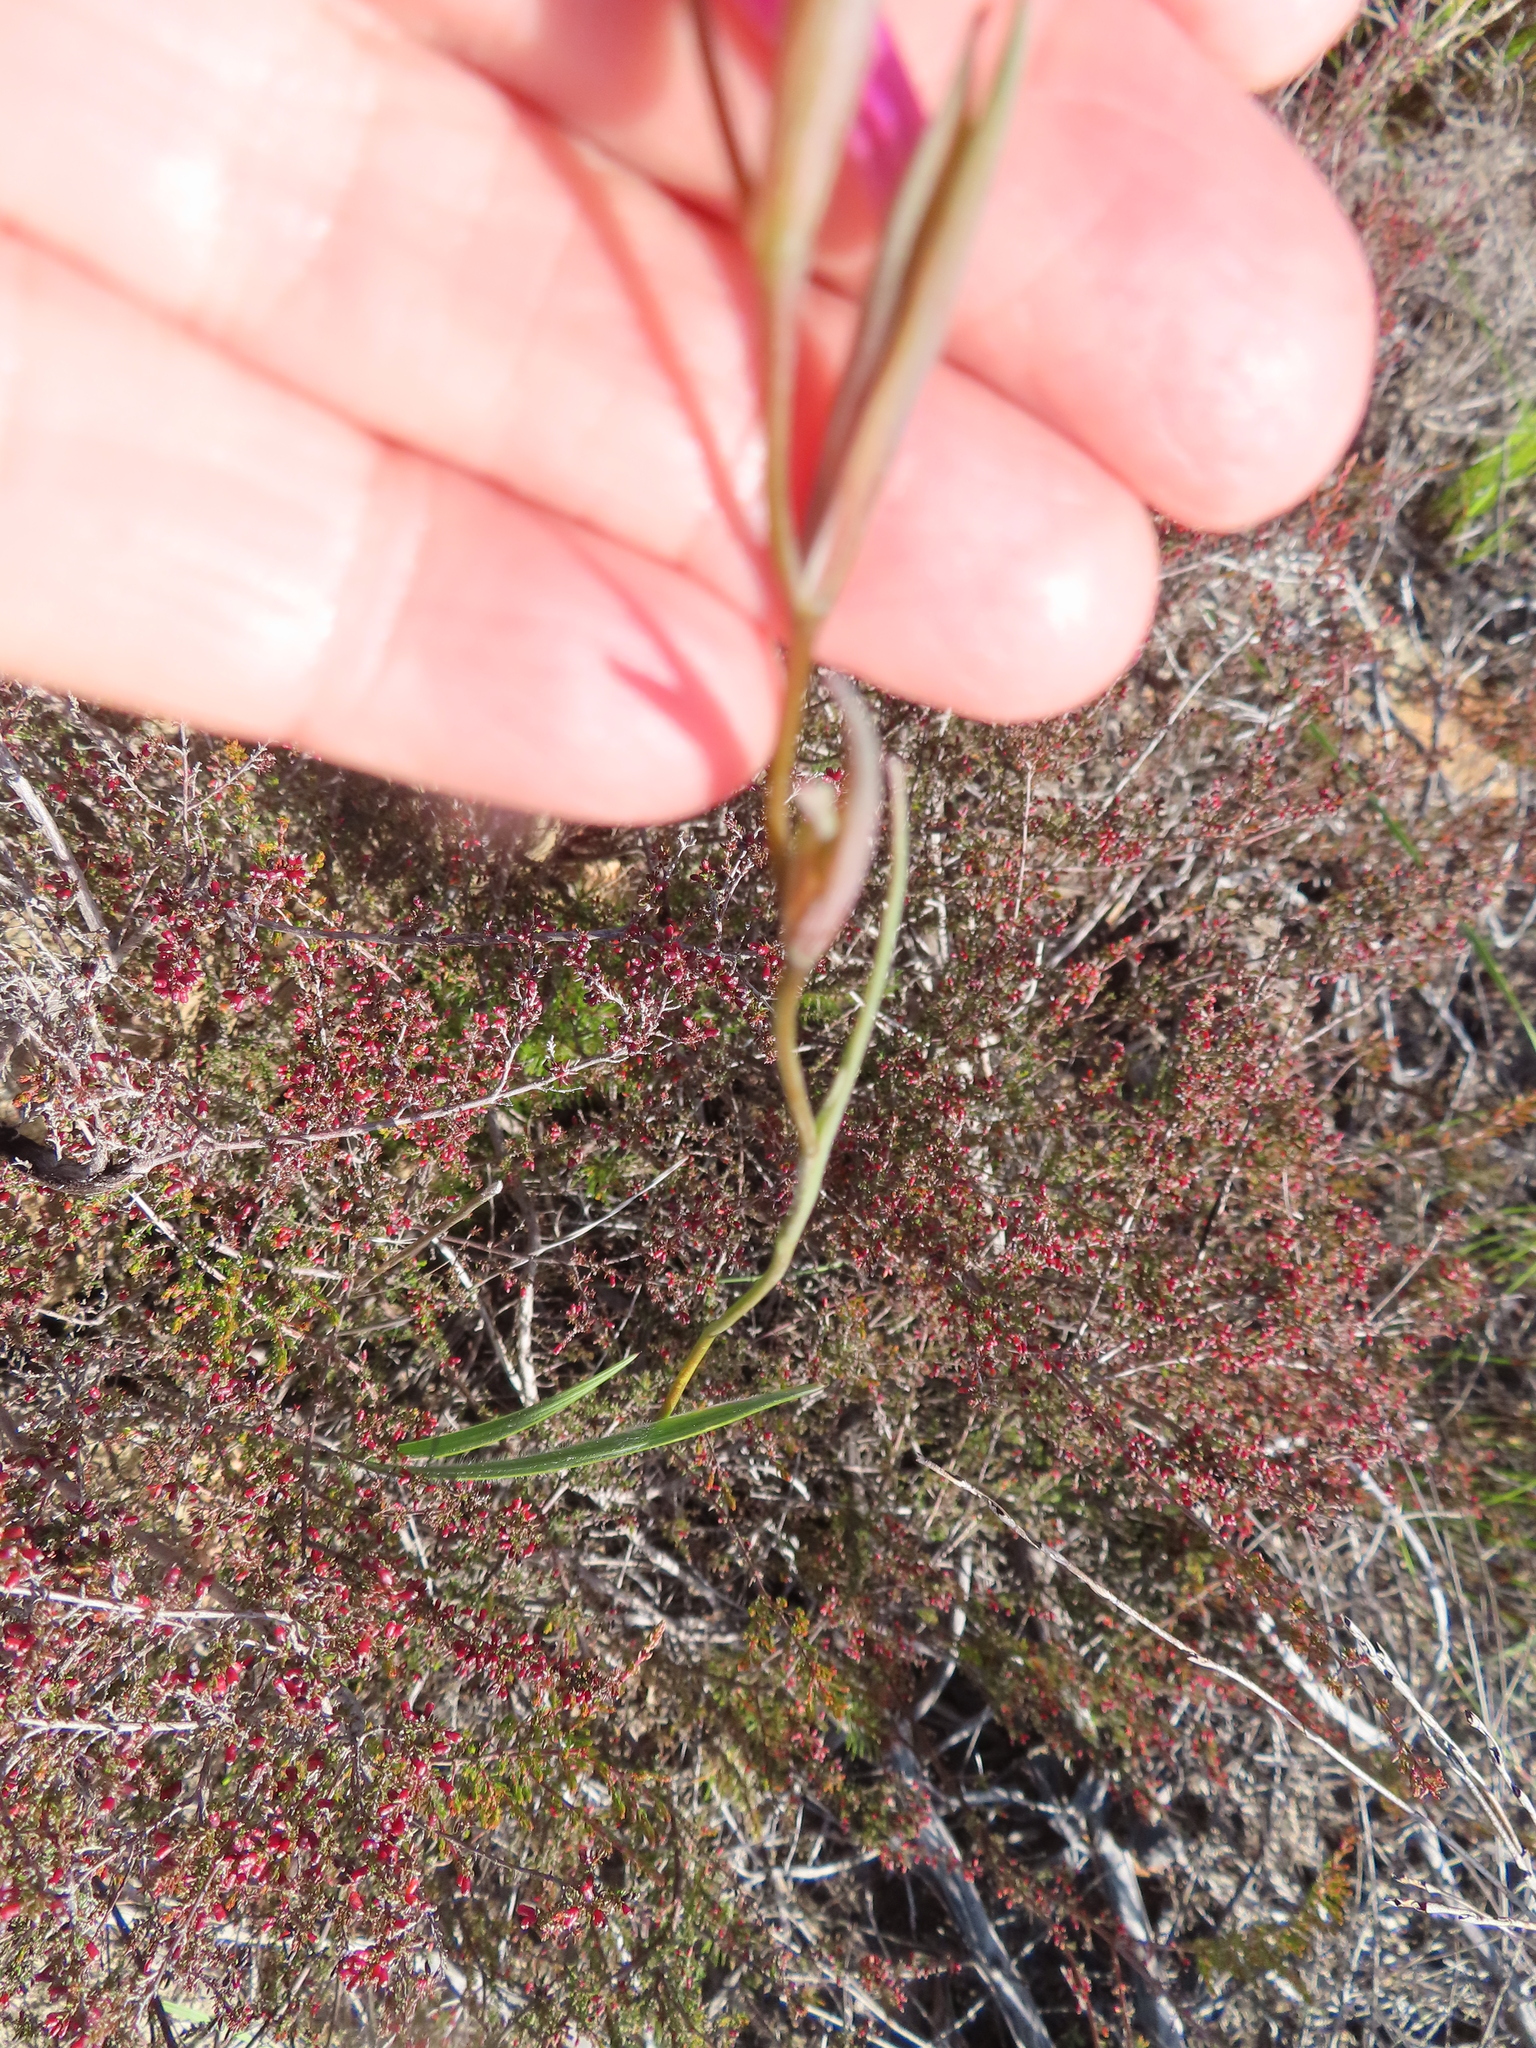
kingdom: Plantae
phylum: Tracheophyta
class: Liliopsida
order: Asparagales
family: Iridaceae
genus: Gladiolus
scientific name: Gladiolus hirsutus
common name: Small pink afrikaner
